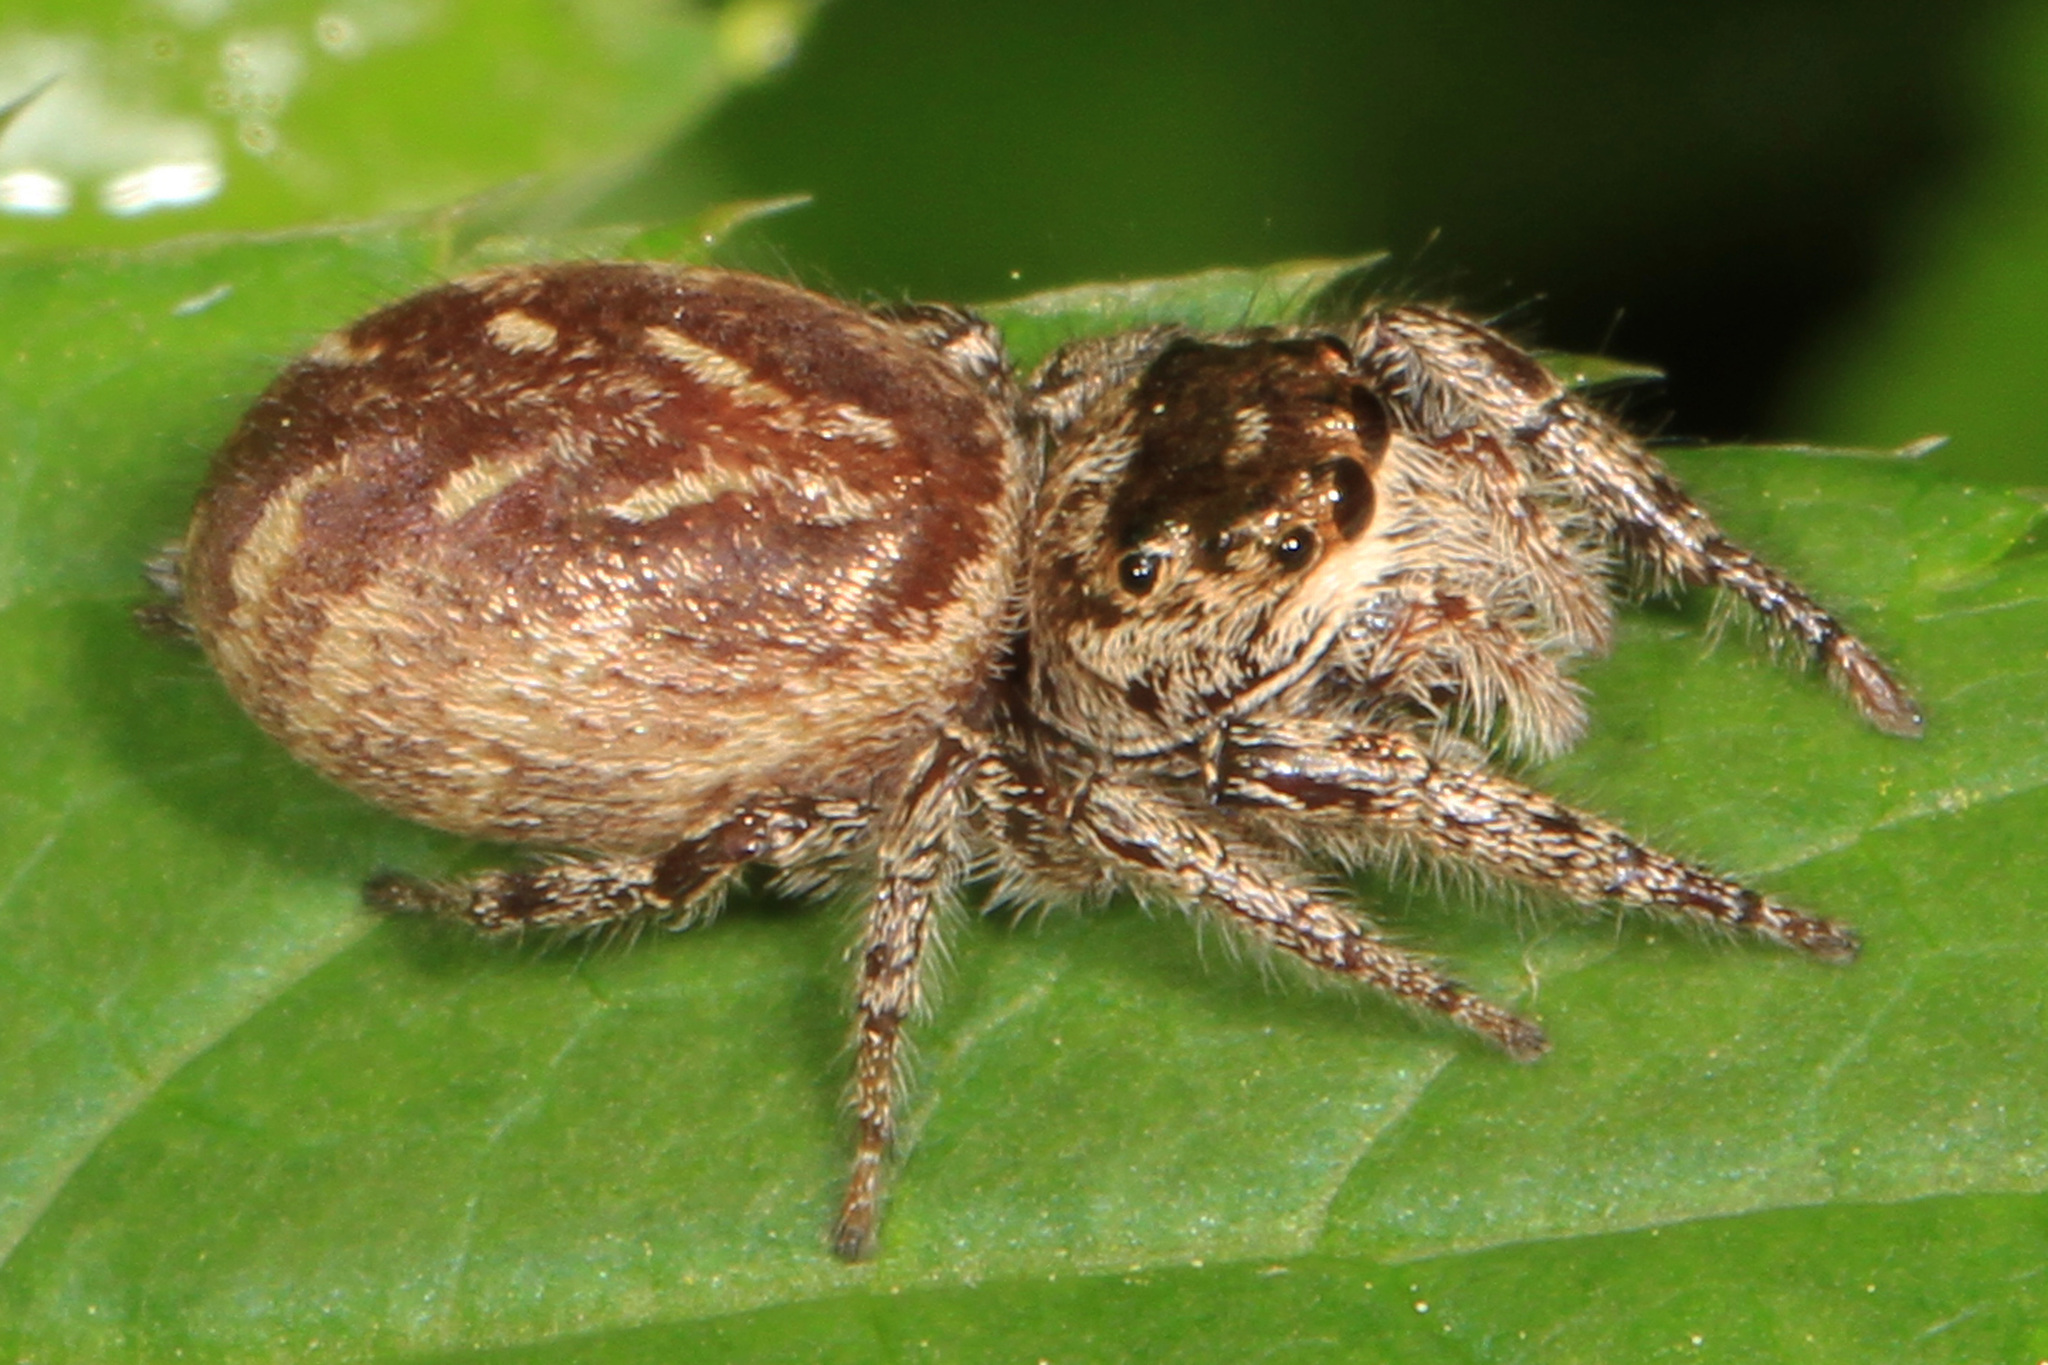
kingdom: Animalia
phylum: Arthropoda
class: Arachnida
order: Araneae
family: Salticidae
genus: Eris
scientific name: Eris militaris
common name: Bronze jumper
